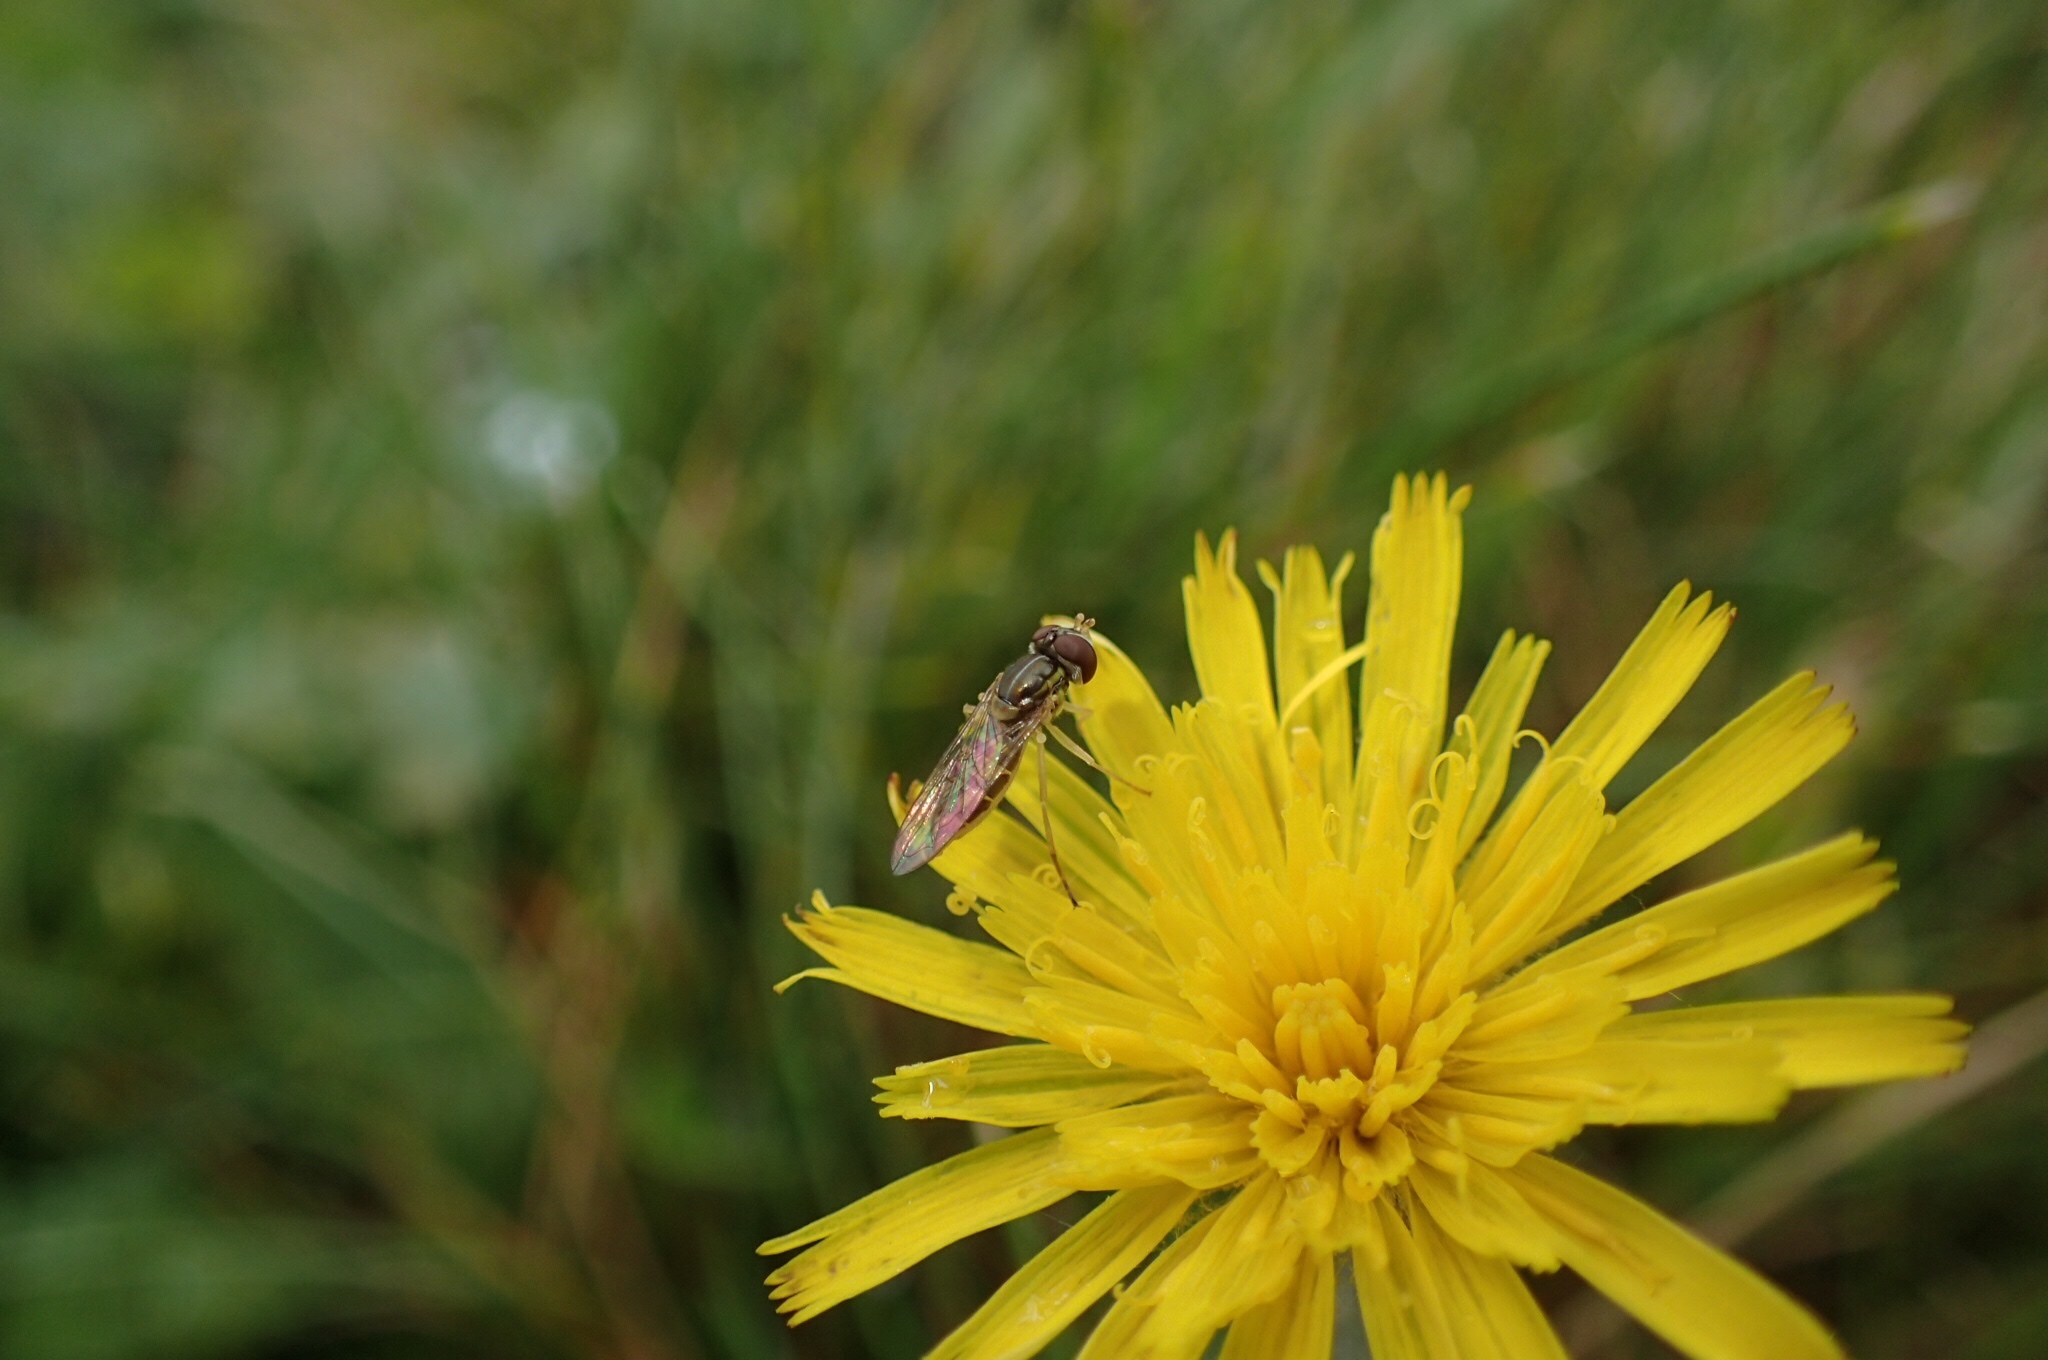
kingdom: Animalia
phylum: Arthropoda
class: Insecta
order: Diptera
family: Syrphidae
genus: Toxomerus
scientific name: Toxomerus marginatus
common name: Syrphid fly
